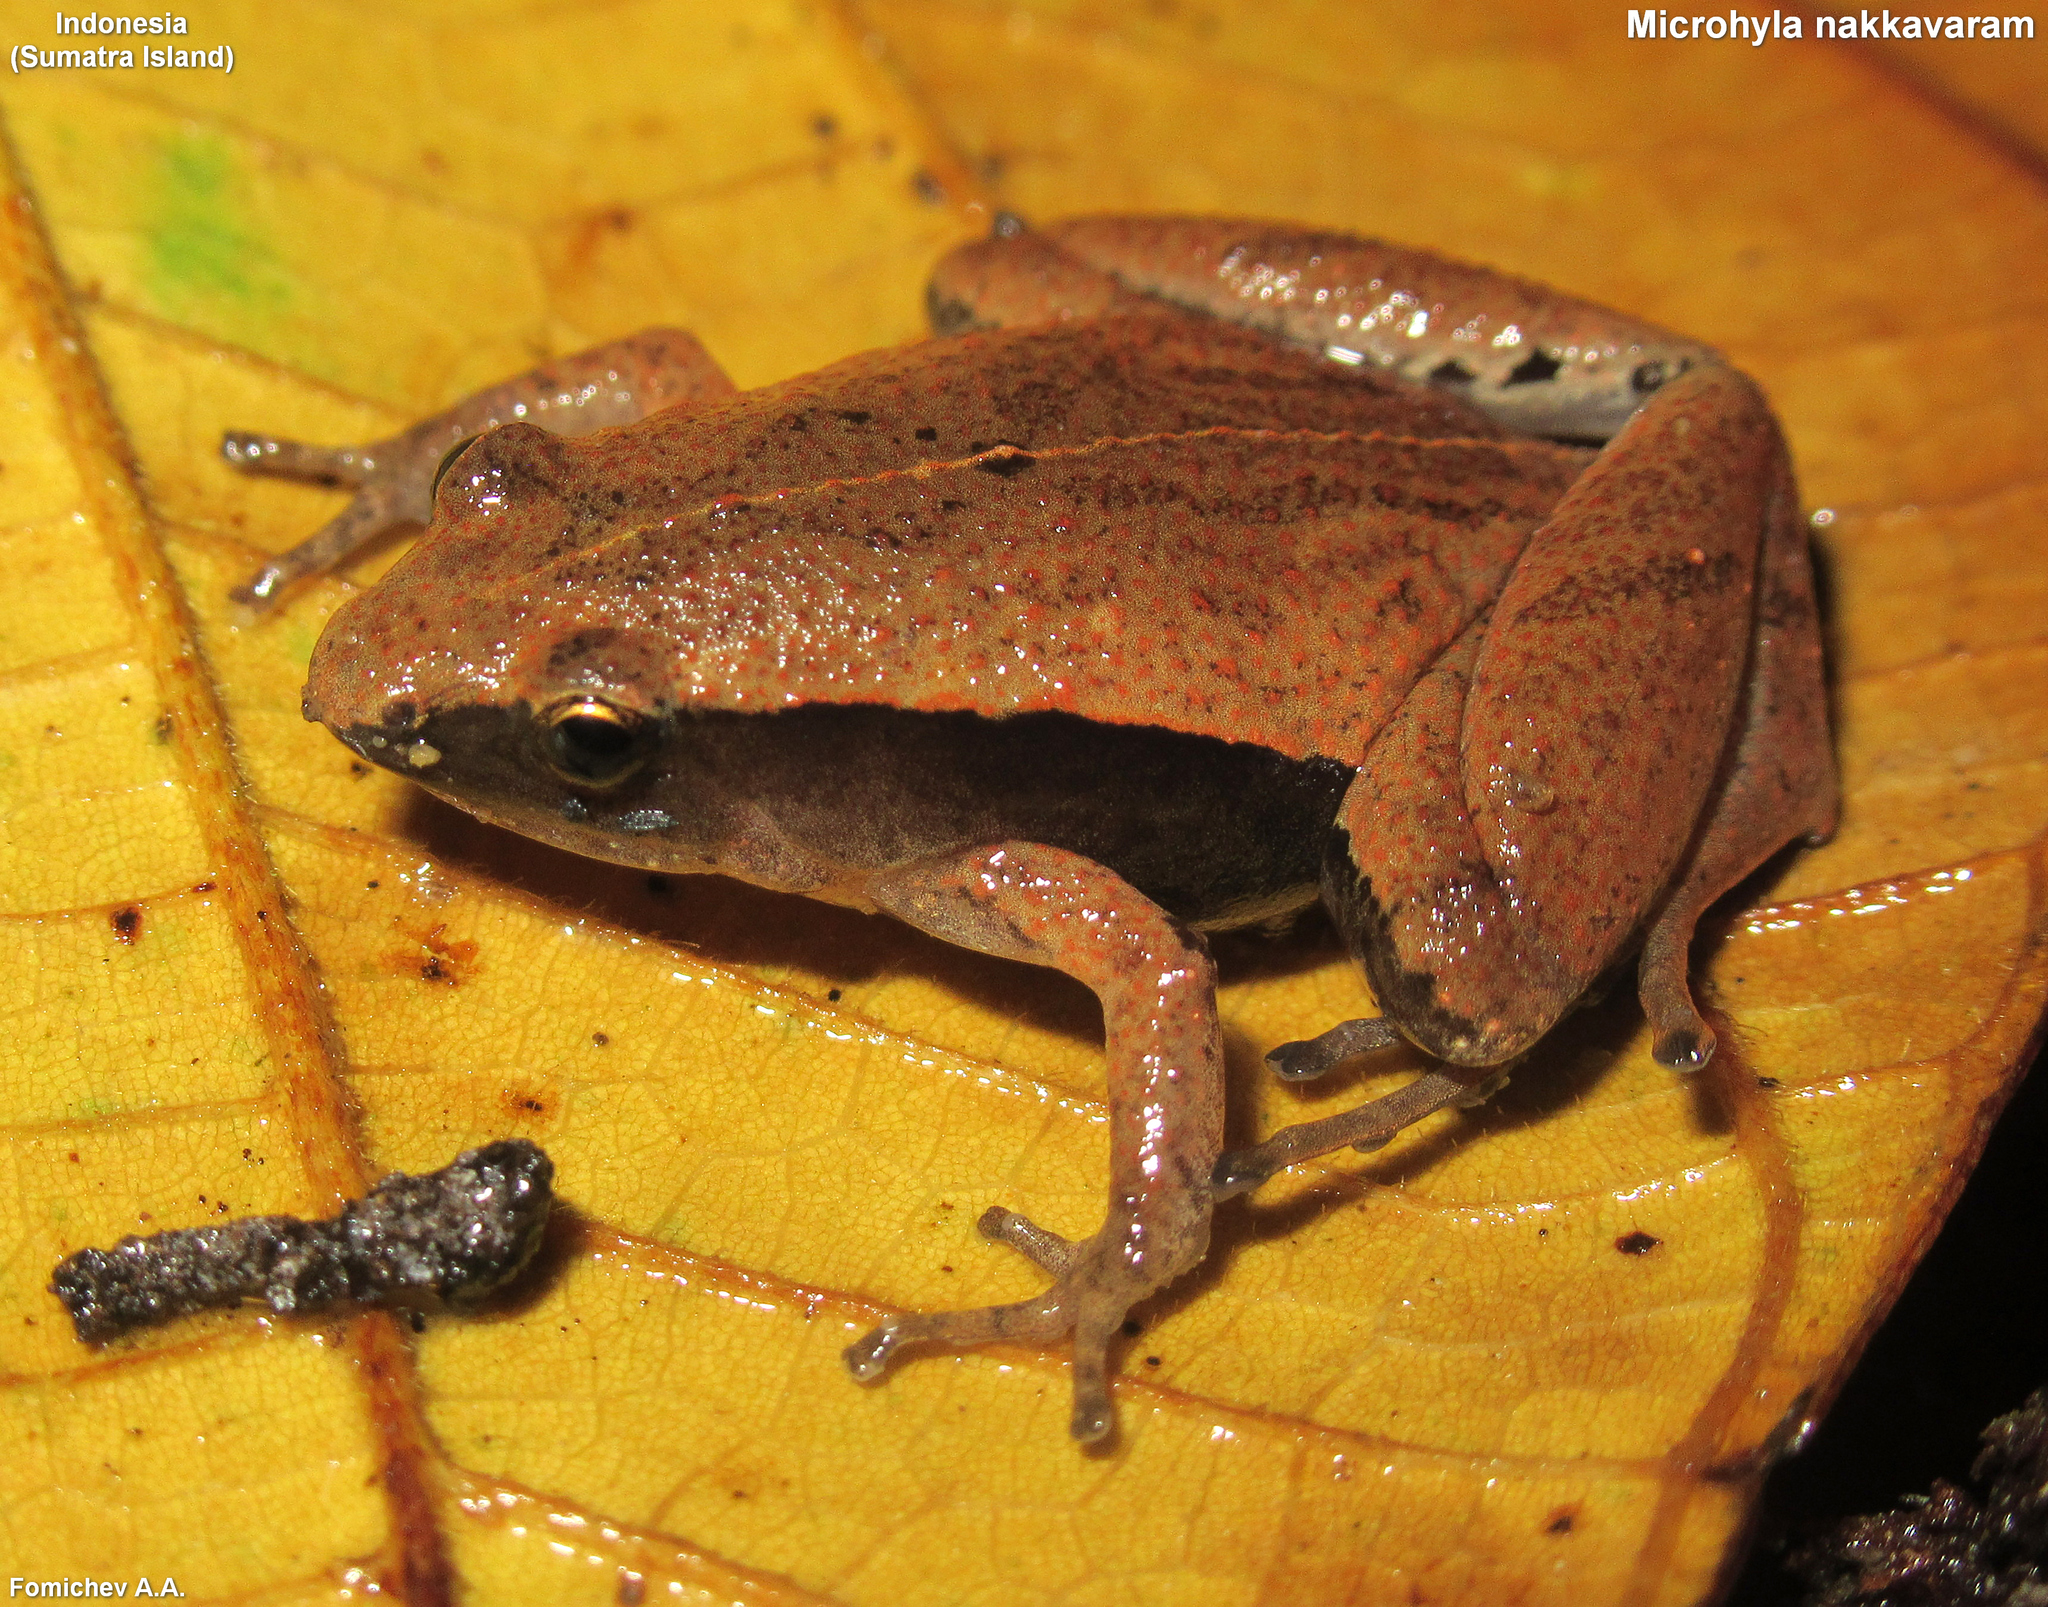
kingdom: Animalia
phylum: Chordata
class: Amphibia
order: Anura
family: Microhylidae
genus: Microhyla
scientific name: Microhyla nakkavaram
